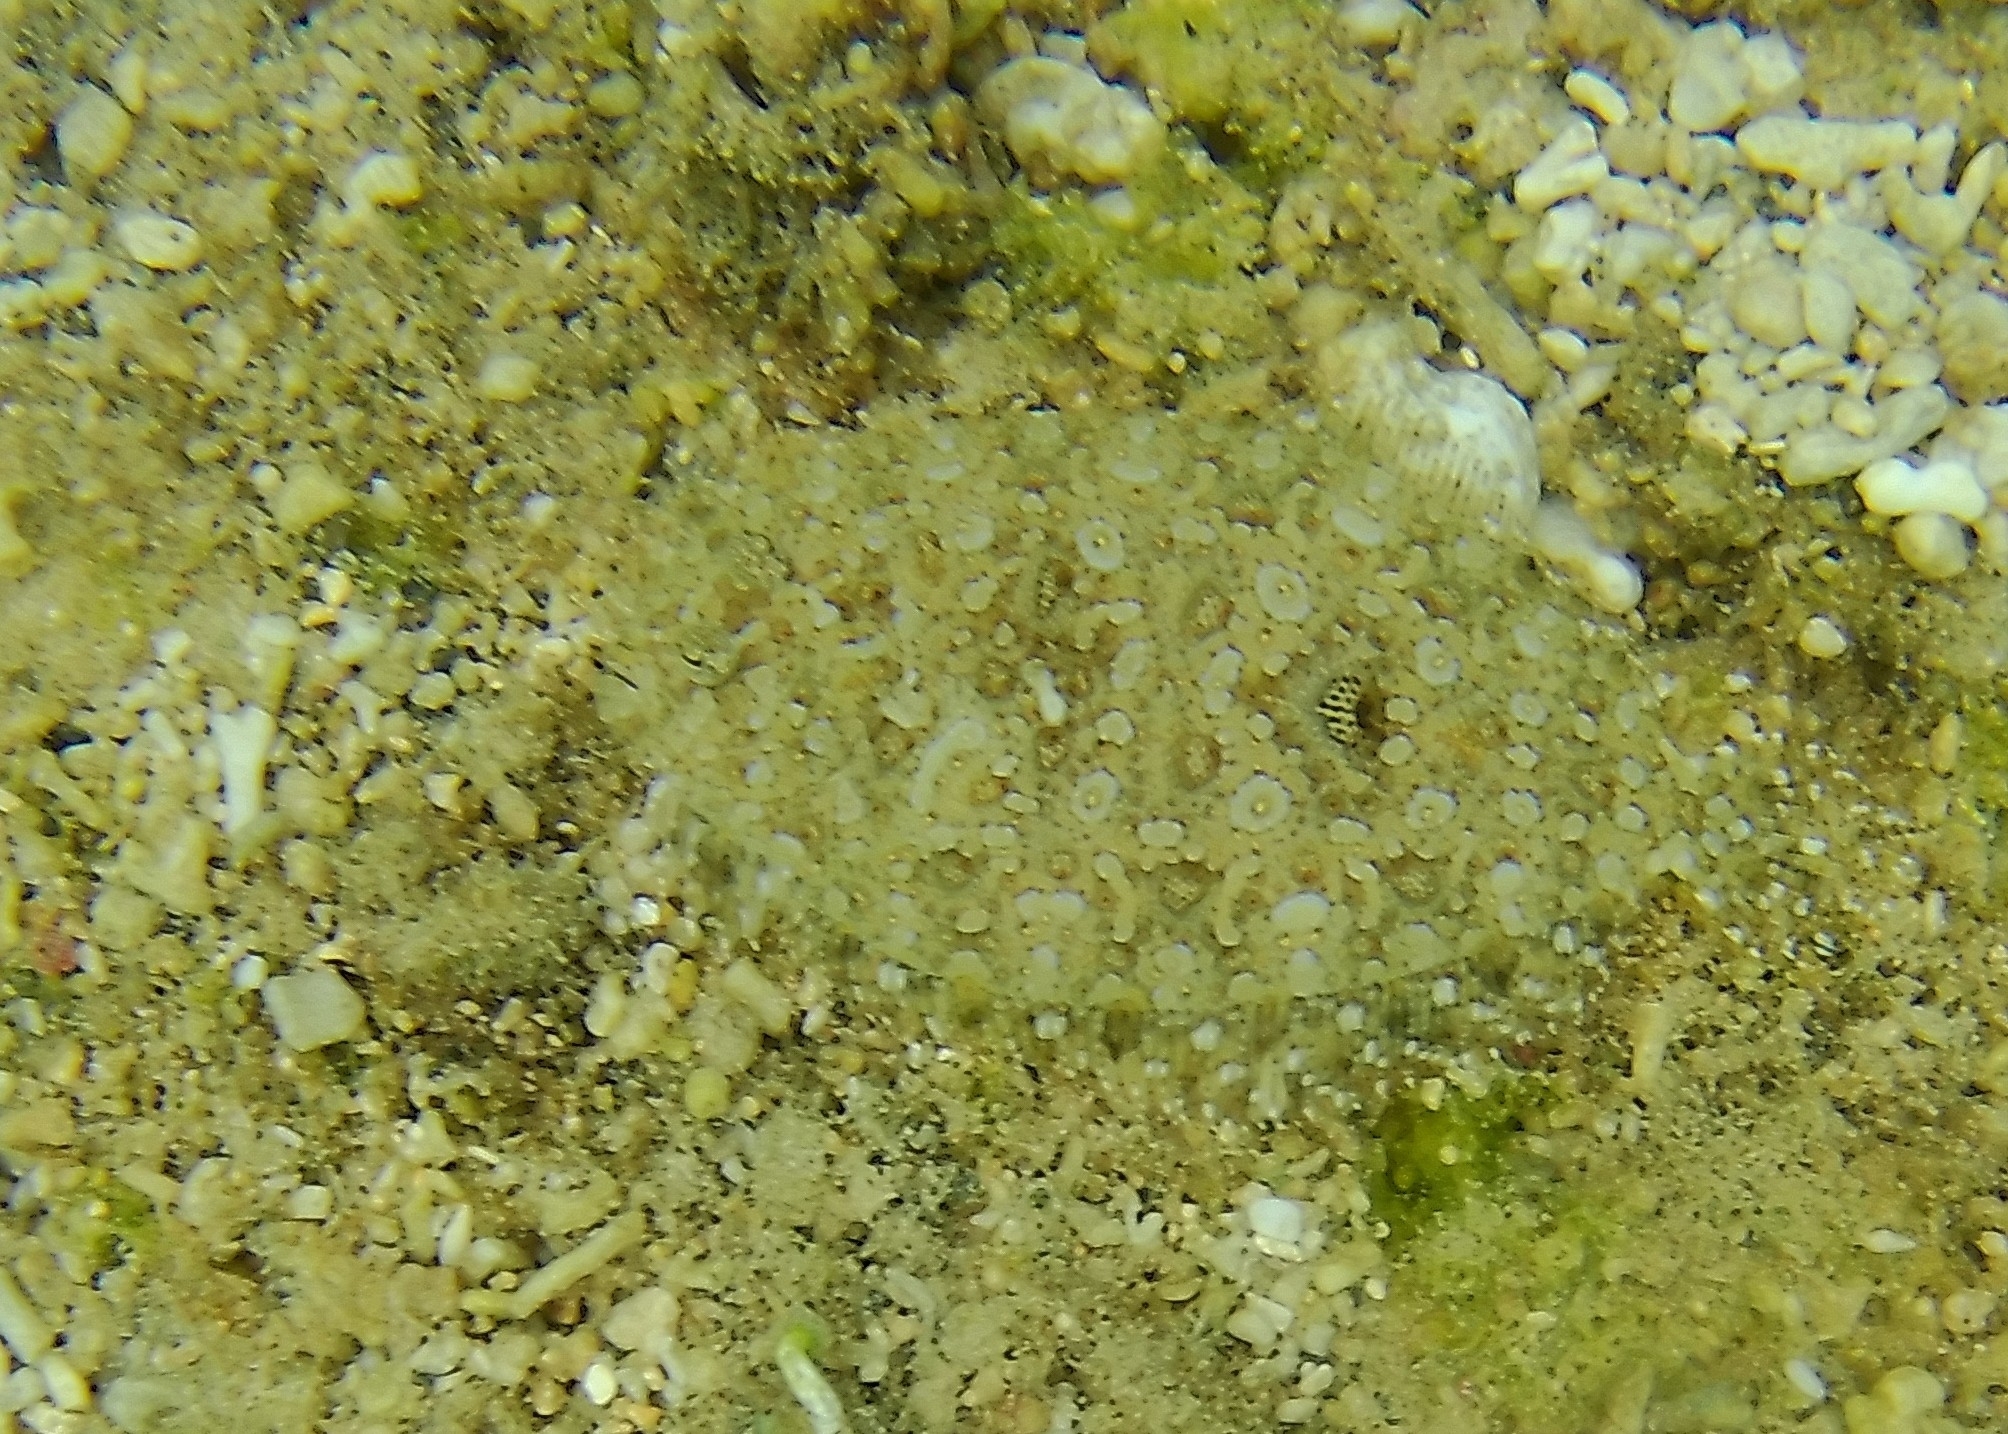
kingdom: Animalia
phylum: Chordata
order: Pleuronectiformes
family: Bothidae
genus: Bothus
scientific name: Bothus pantherinus
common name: Leopard flounder
